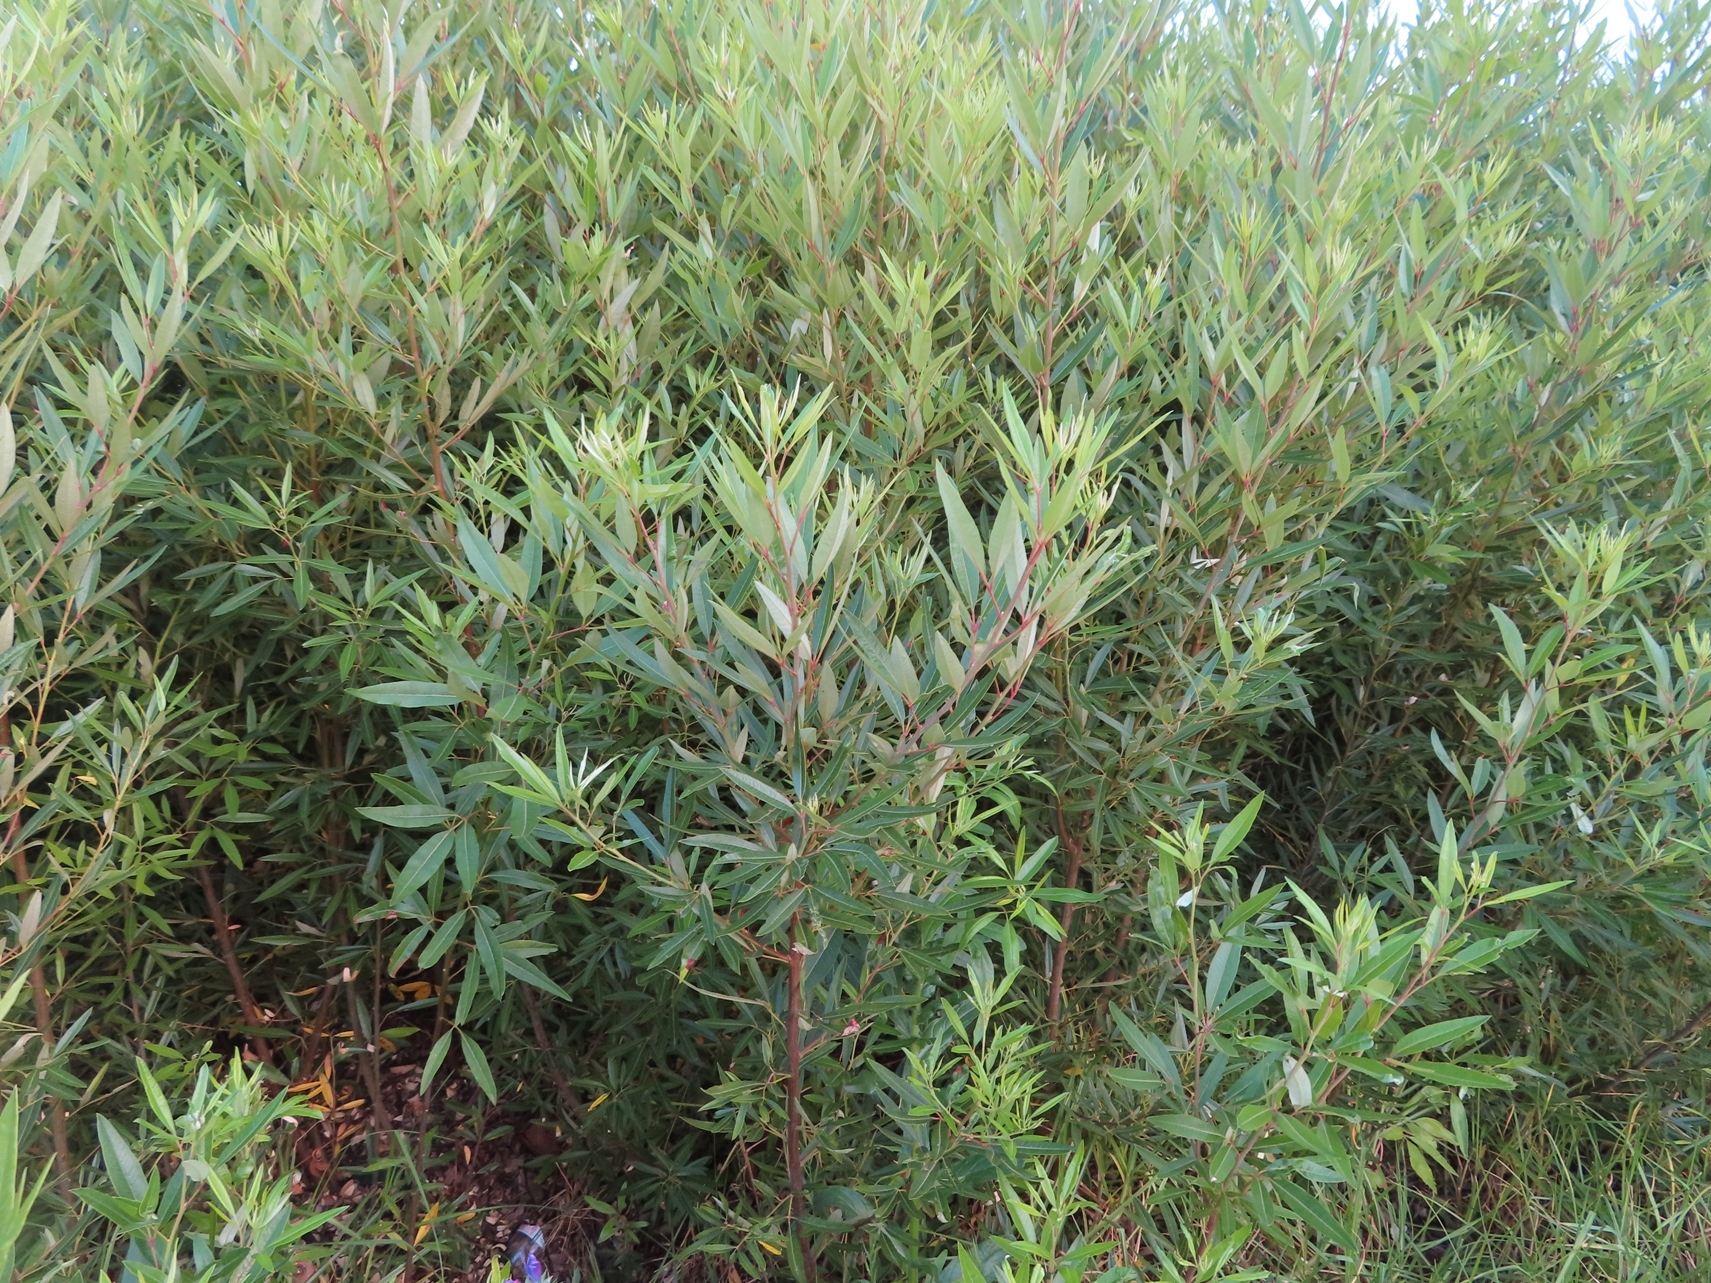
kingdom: Plantae
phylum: Tracheophyta
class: Magnoliopsida
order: Sapindales
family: Anacardiaceae
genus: Searsia
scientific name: Searsia angustifolia
